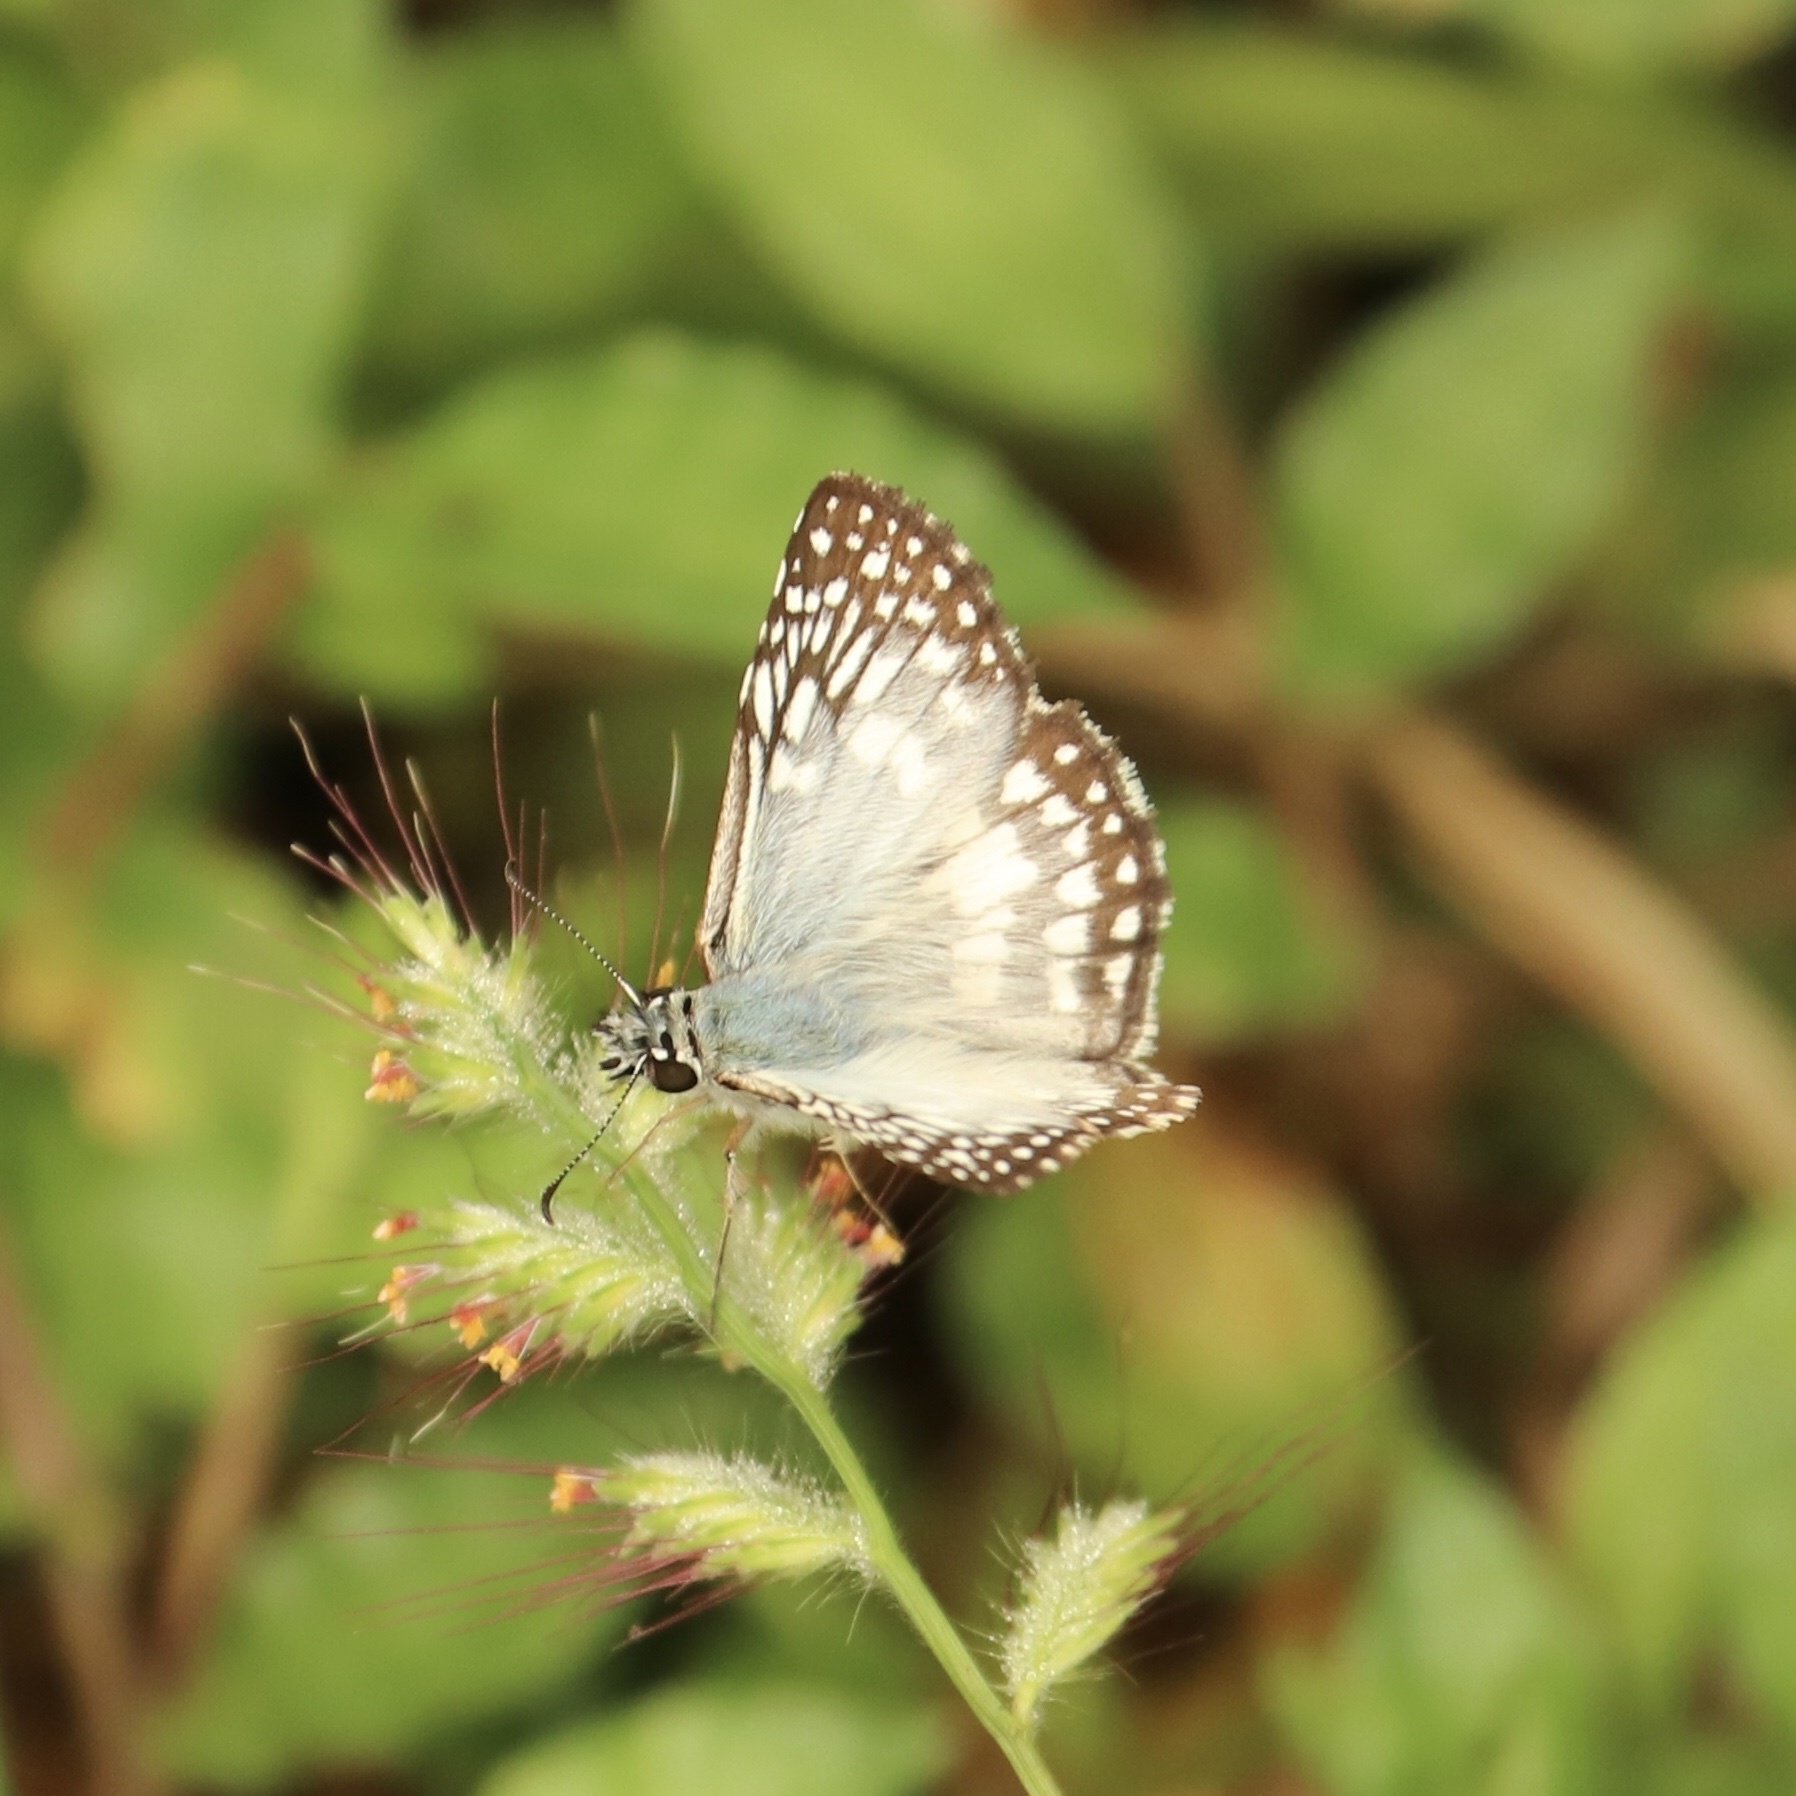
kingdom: Animalia
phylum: Arthropoda
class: Insecta
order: Lepidoptera
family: Hesperiidae
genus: Pyrgus
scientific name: Pyrgus oileus
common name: Tropical checkered-skipper
